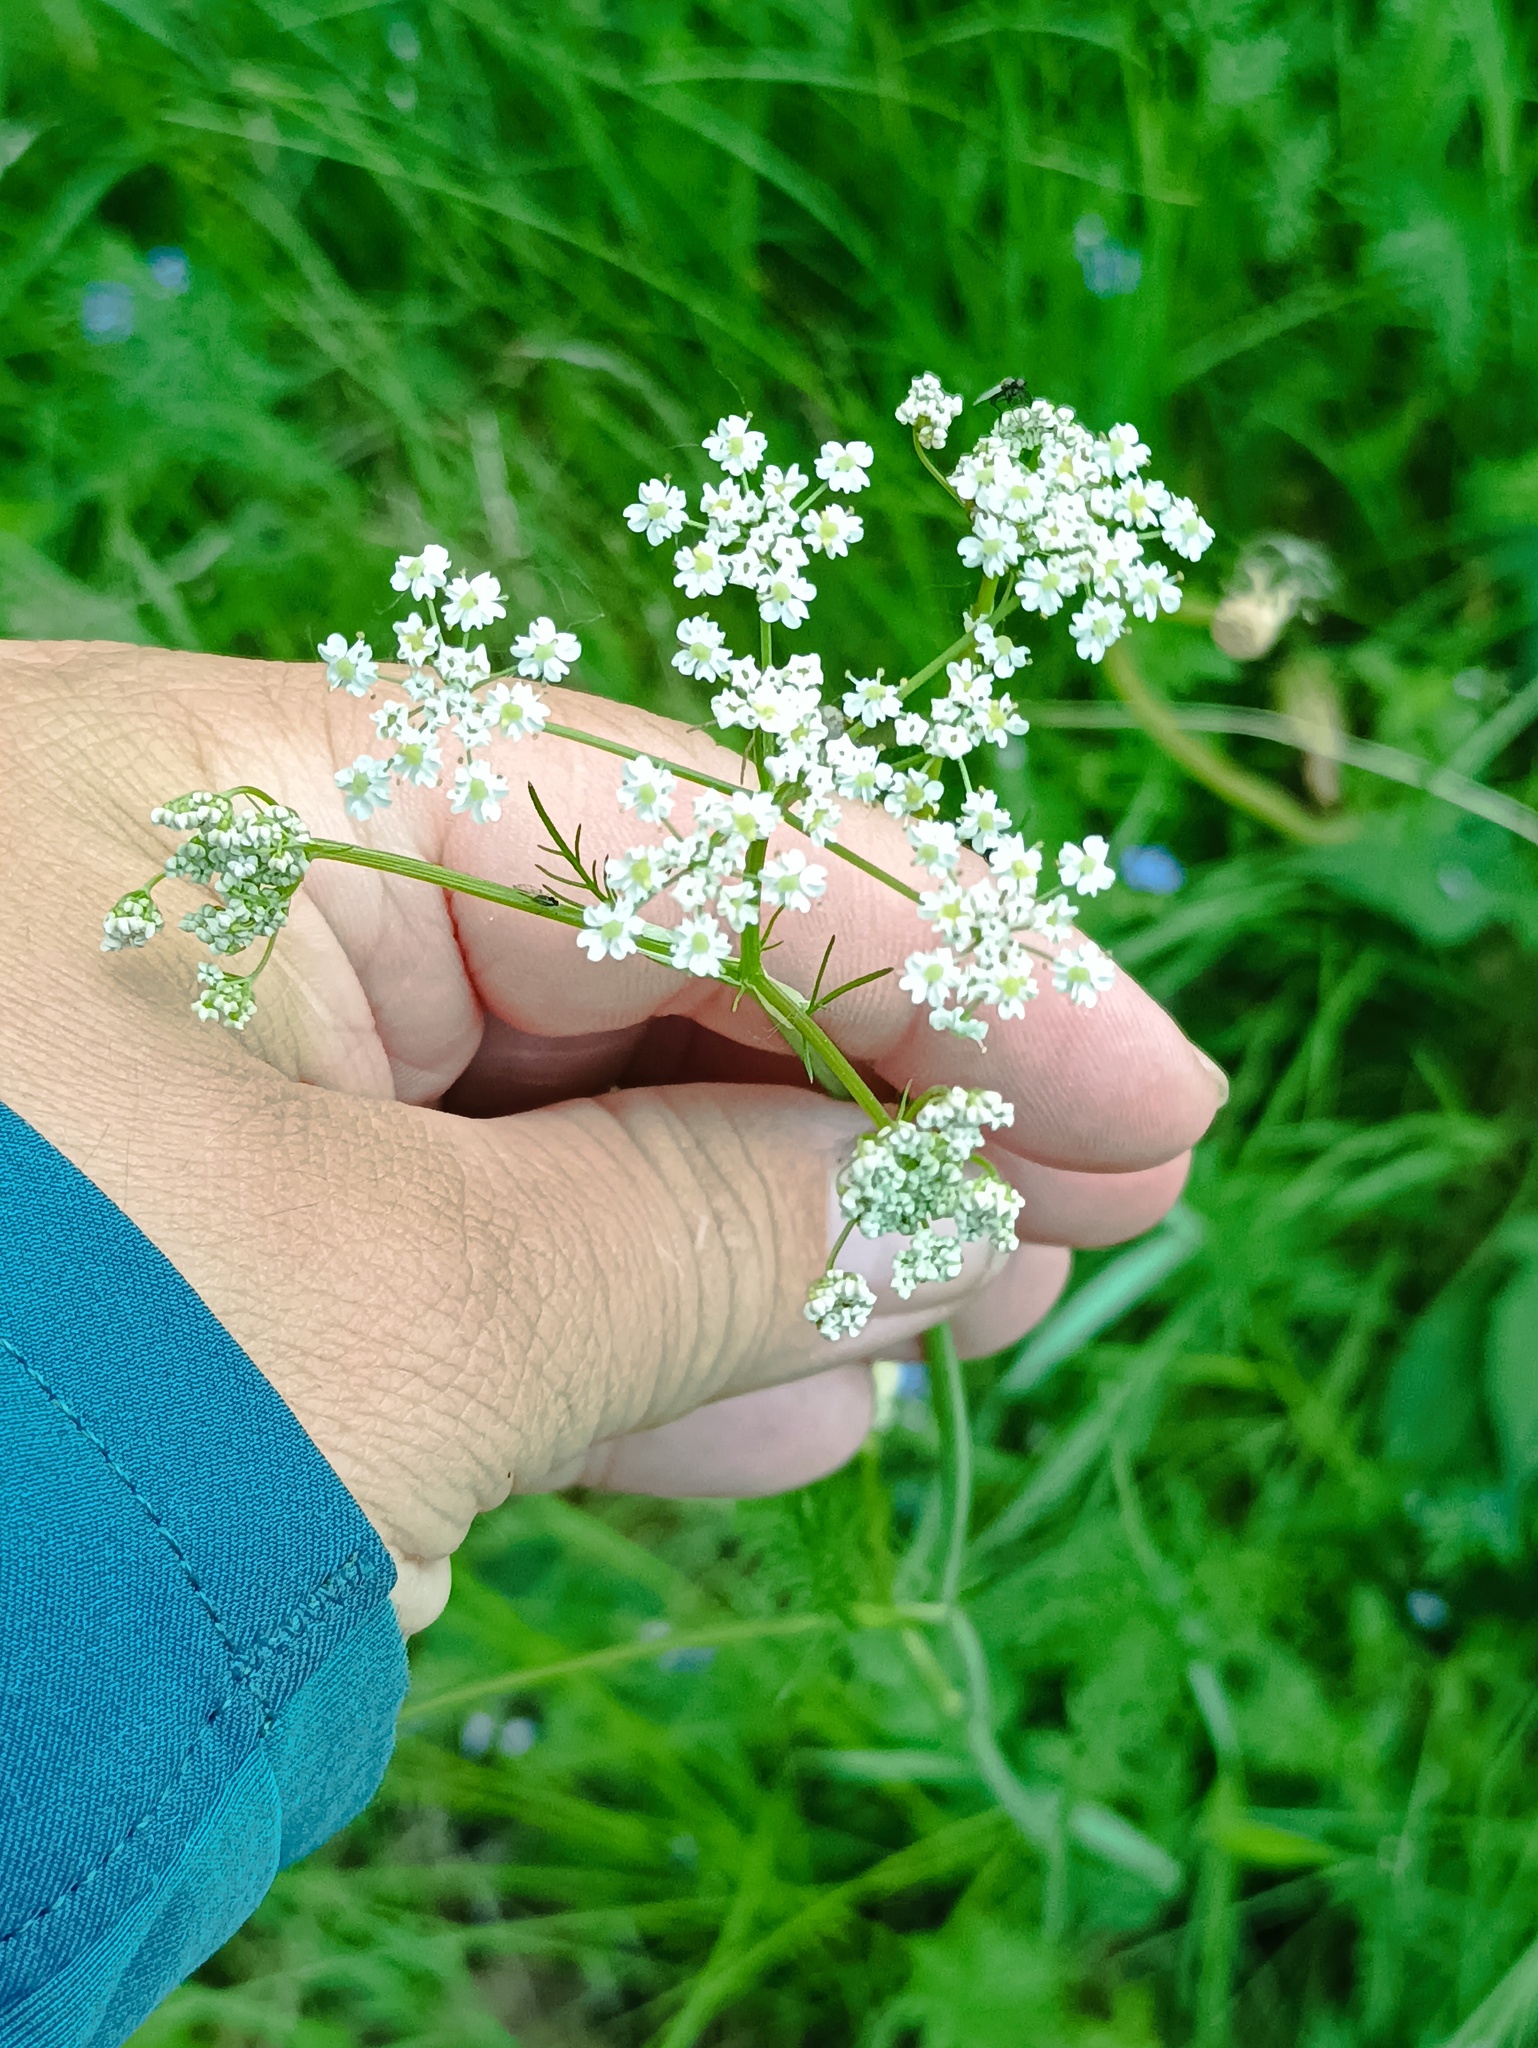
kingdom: Plantae
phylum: Tracheophyta
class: Magnoliopsida
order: Apiales
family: Apiaceae
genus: Carum
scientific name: Carum carvi
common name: Caraway
